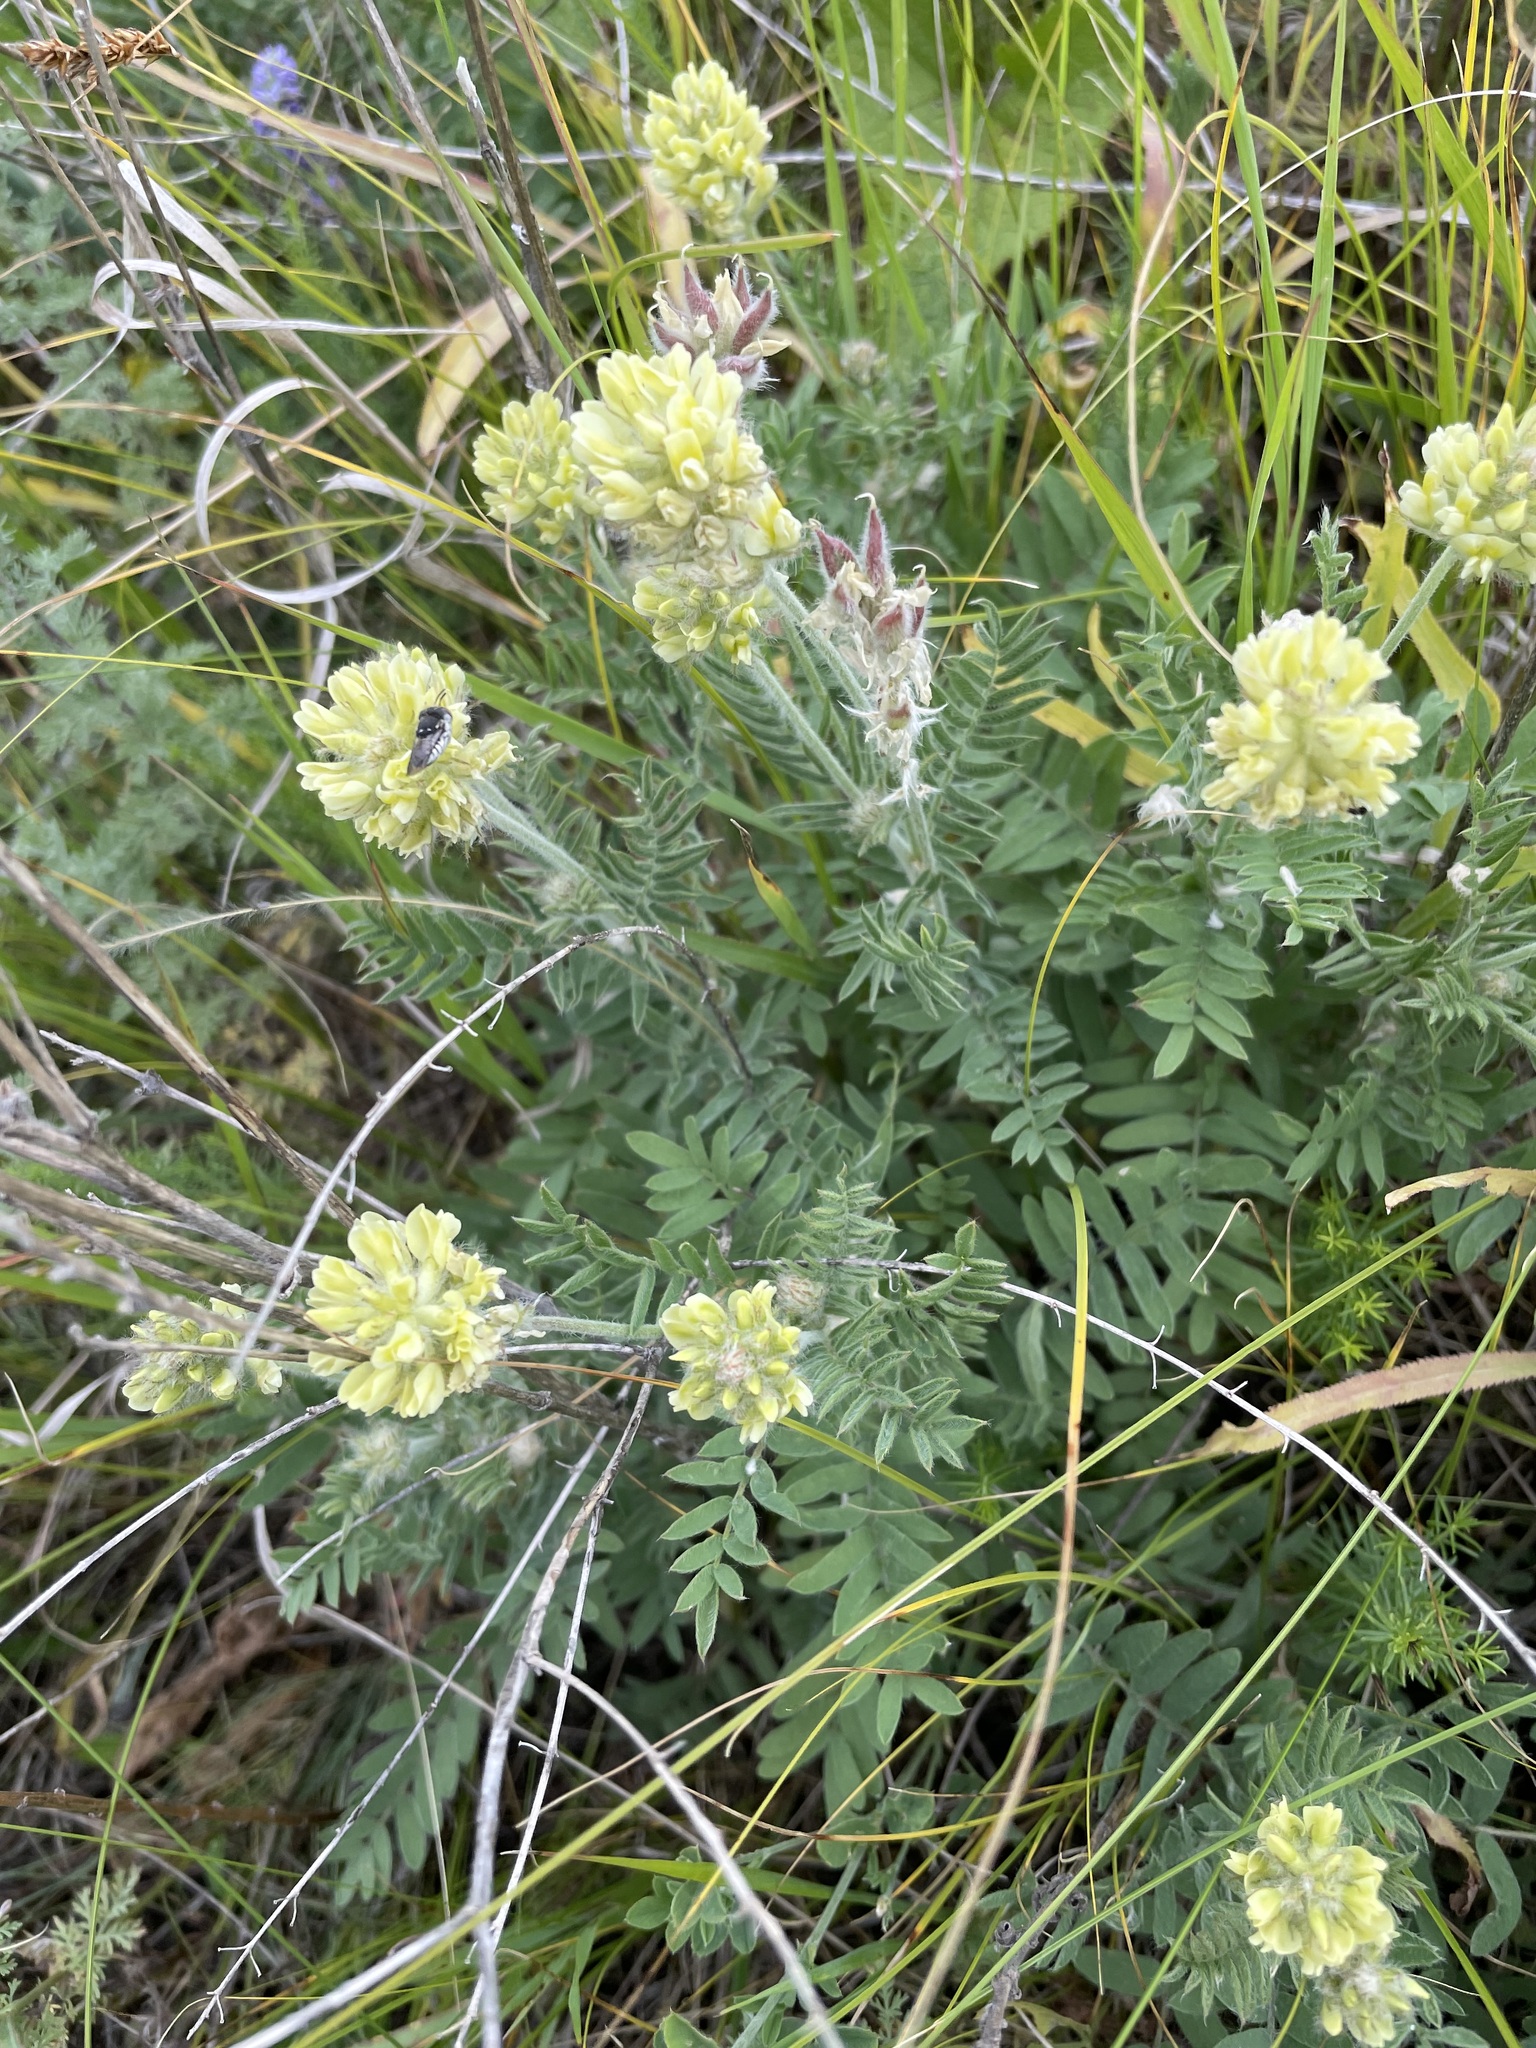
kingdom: Plantae
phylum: Tracheophyta
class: Magnoliopsida
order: Fabales
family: Fabaceae
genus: Oxytropis
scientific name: Oxytropis pilosa
